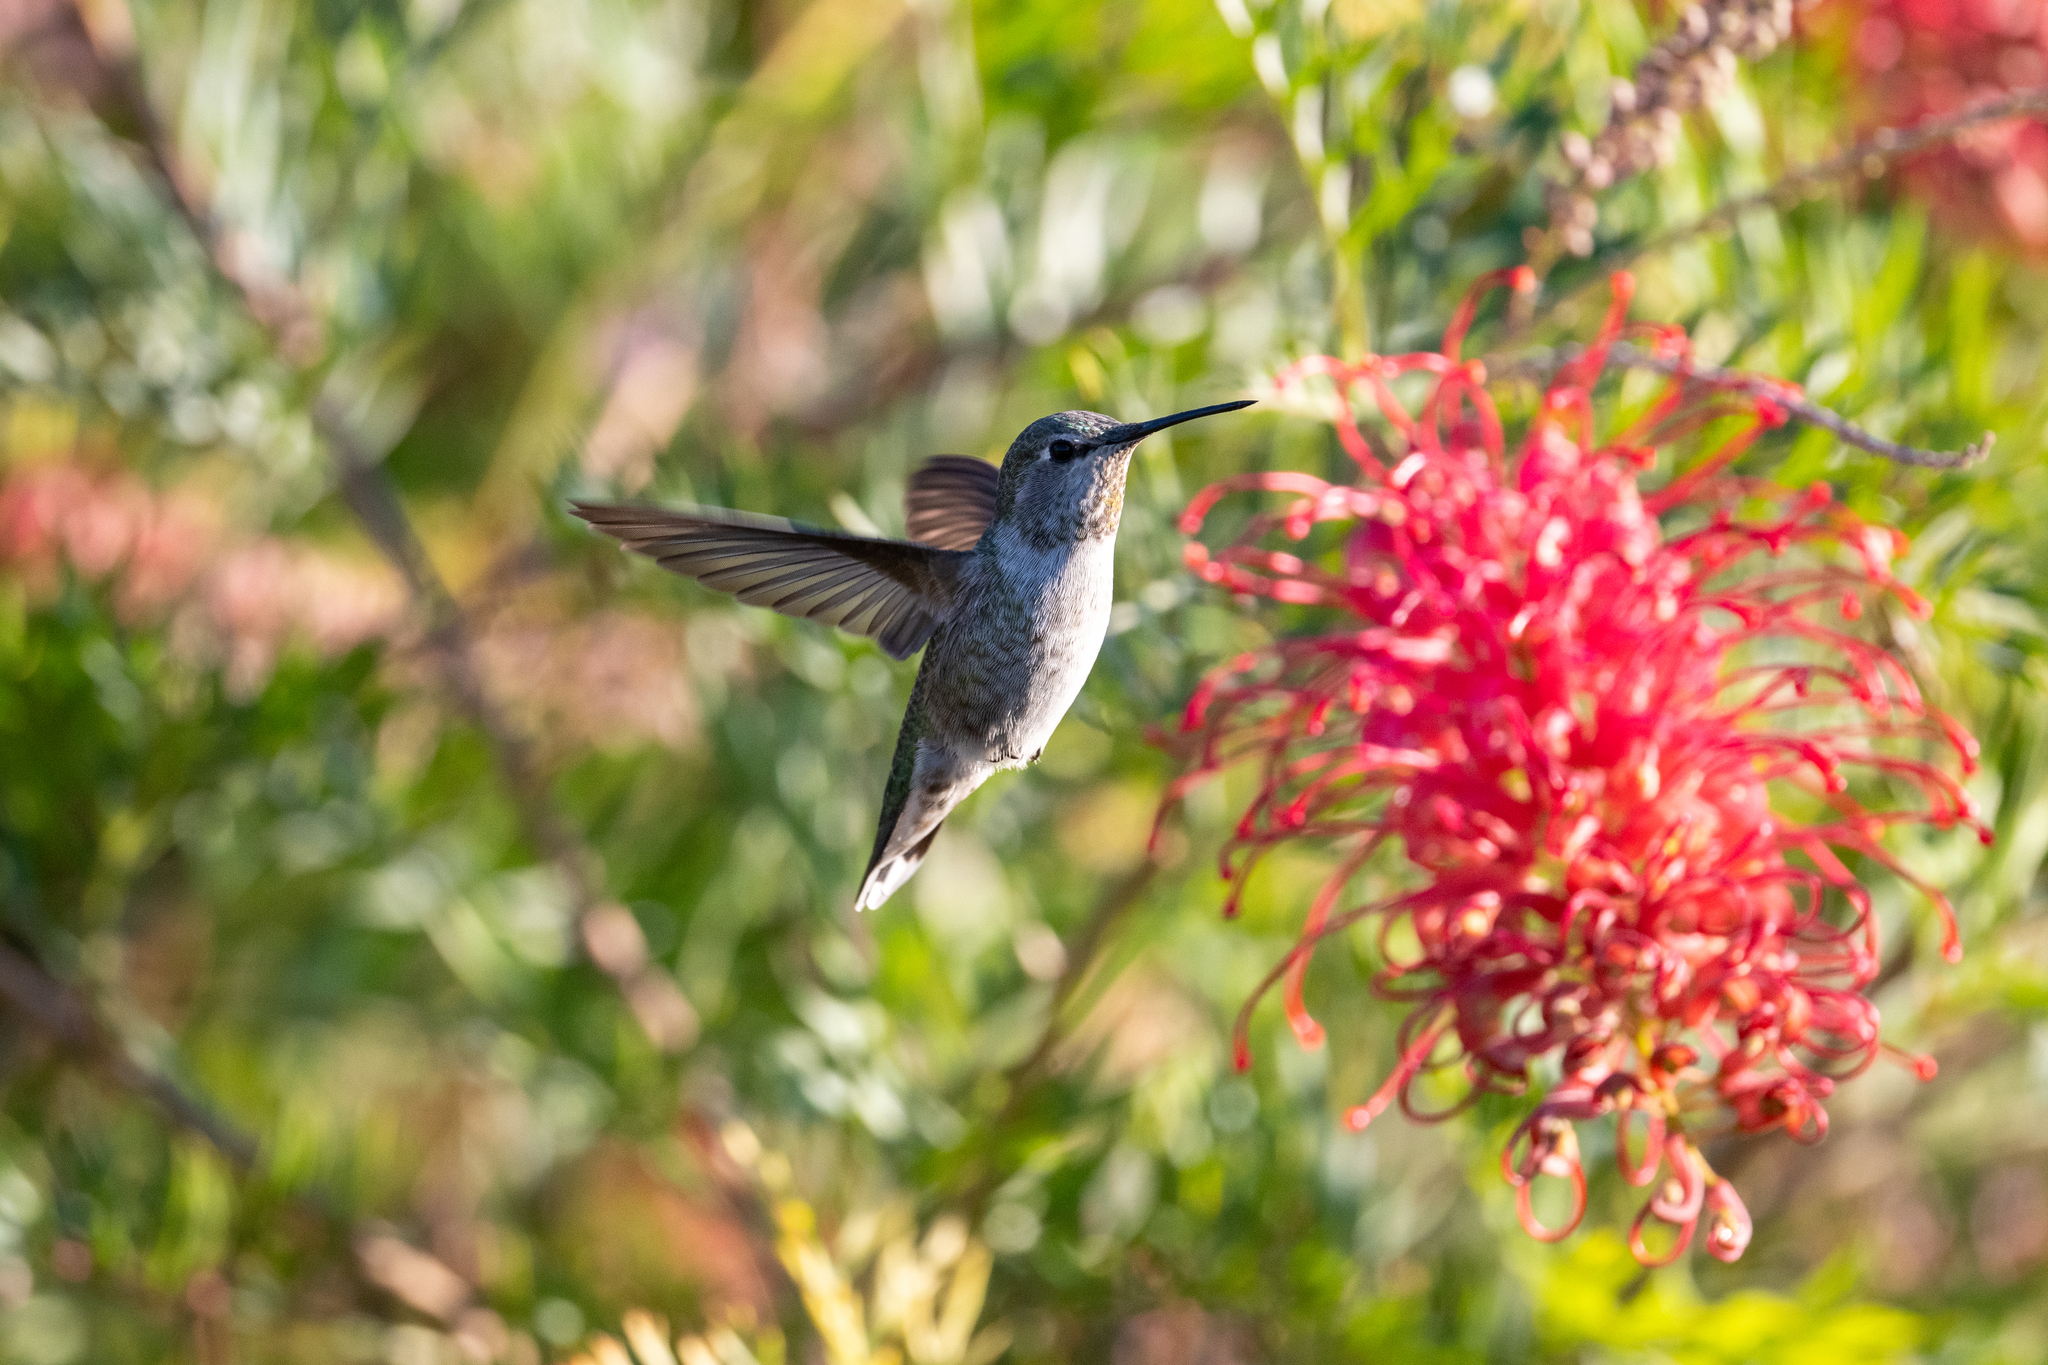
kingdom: Animalia
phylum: Chordata
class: Aves
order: Apodiformes
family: Trochilidae
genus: Calypte
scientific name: Calypte anna
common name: Anna's hummingbird
